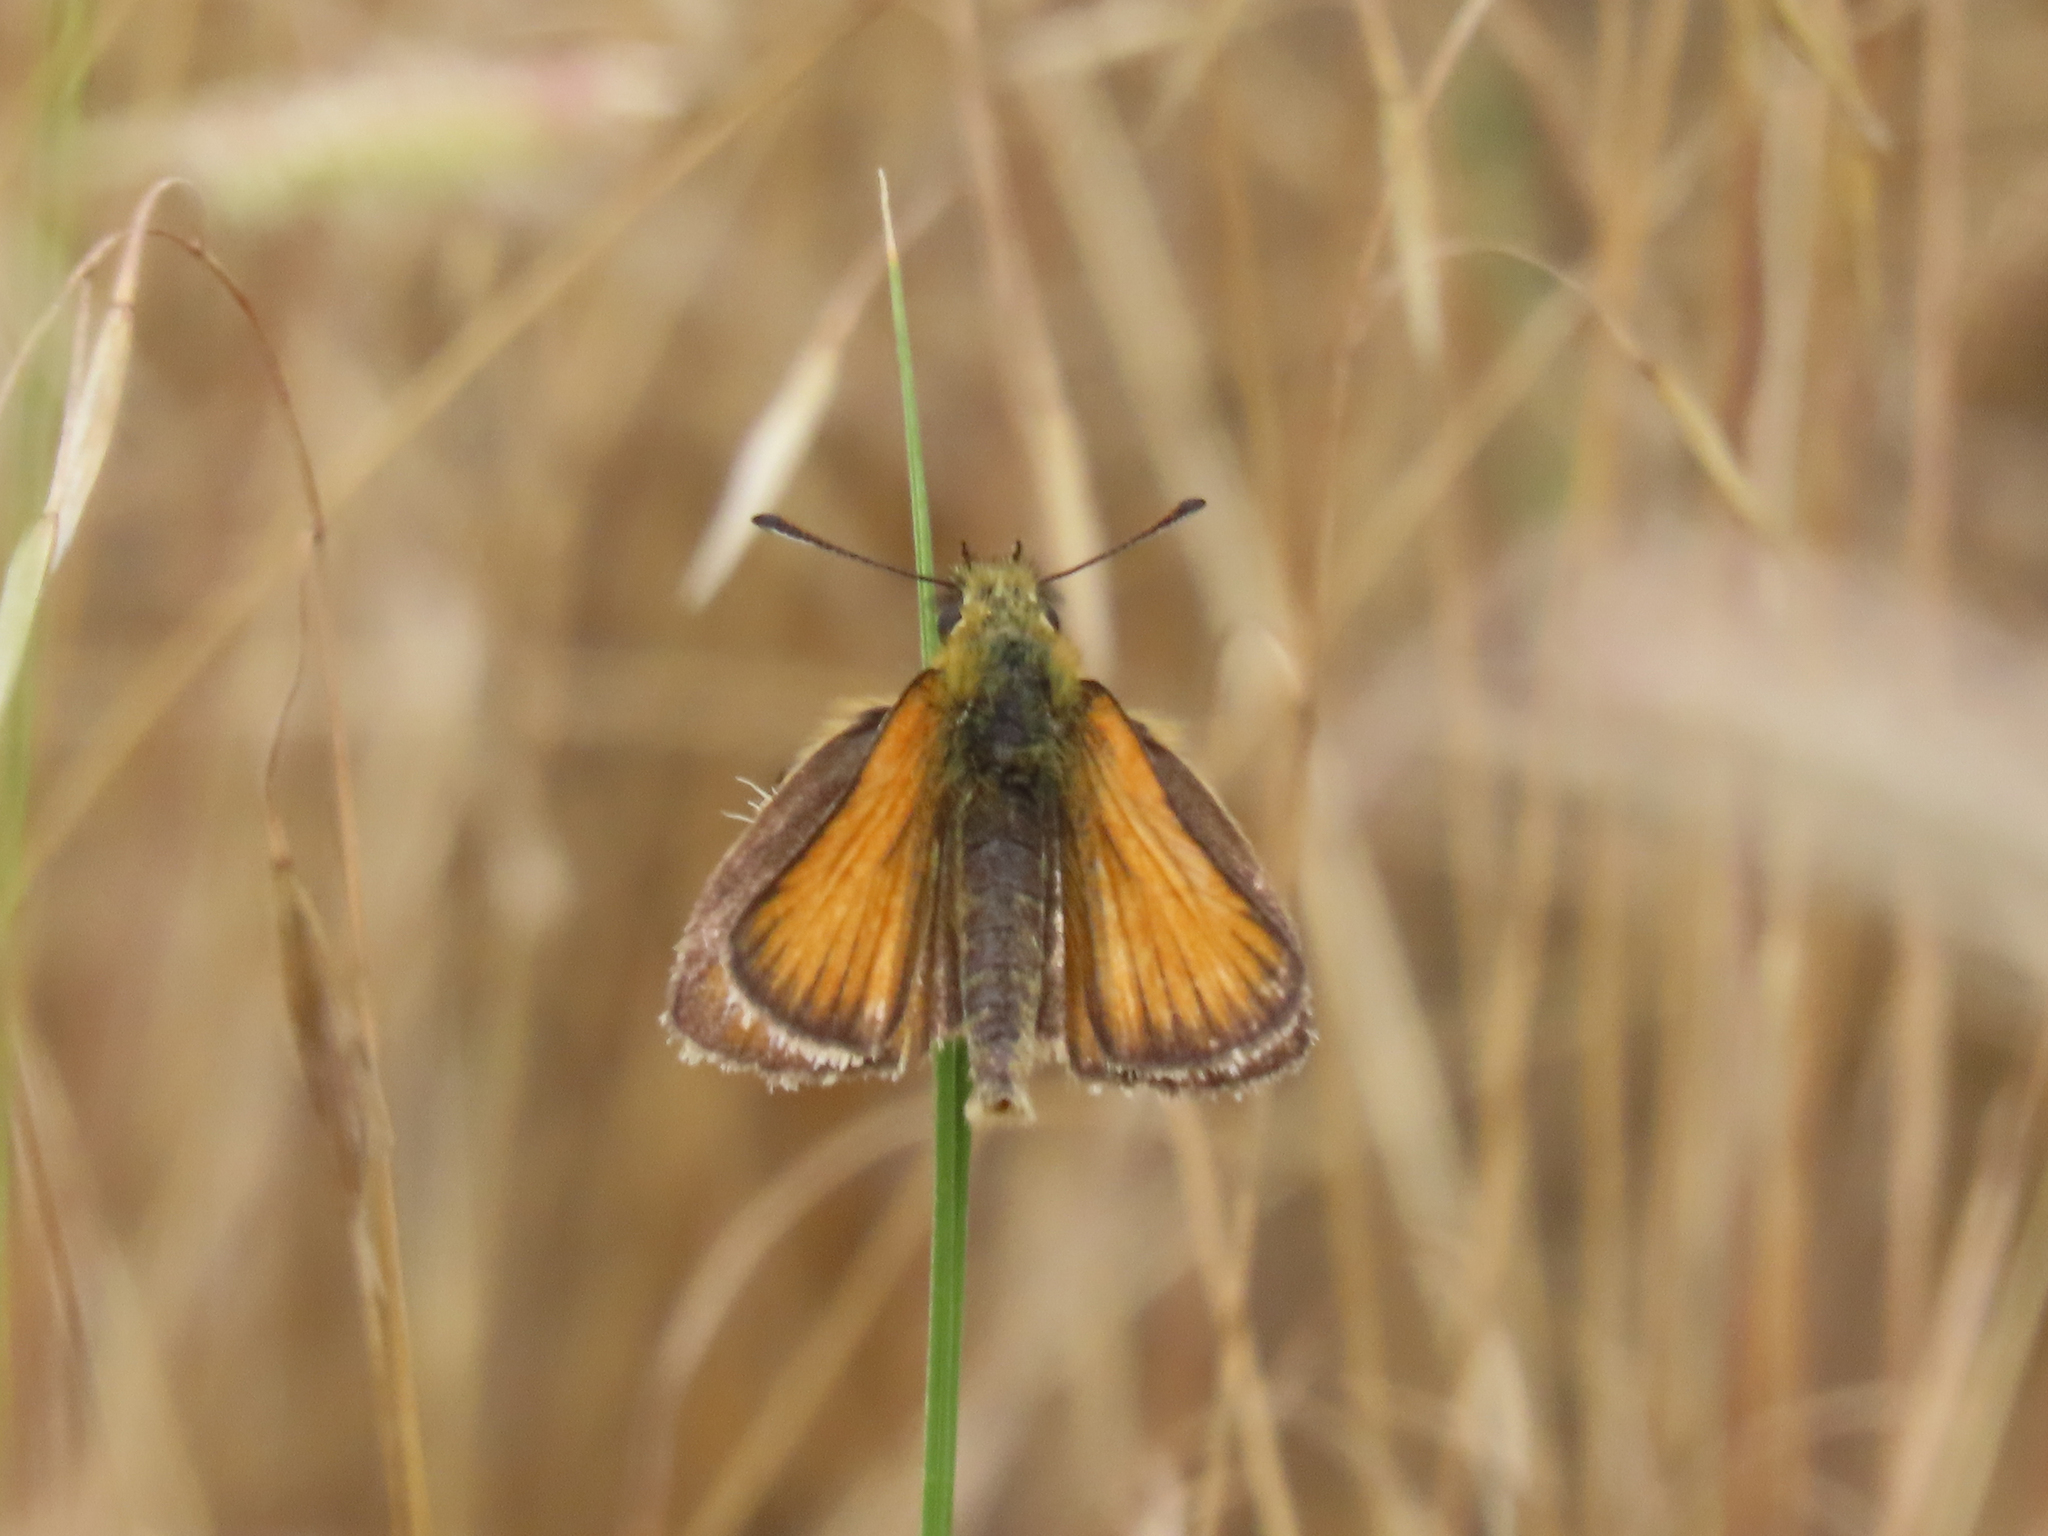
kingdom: Animalia
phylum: Arthropoda
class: Insecta
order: Lepidoptera
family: Hesperiidae
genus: Thymelicus
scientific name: Thymelicus lineola
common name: Essex skipper
